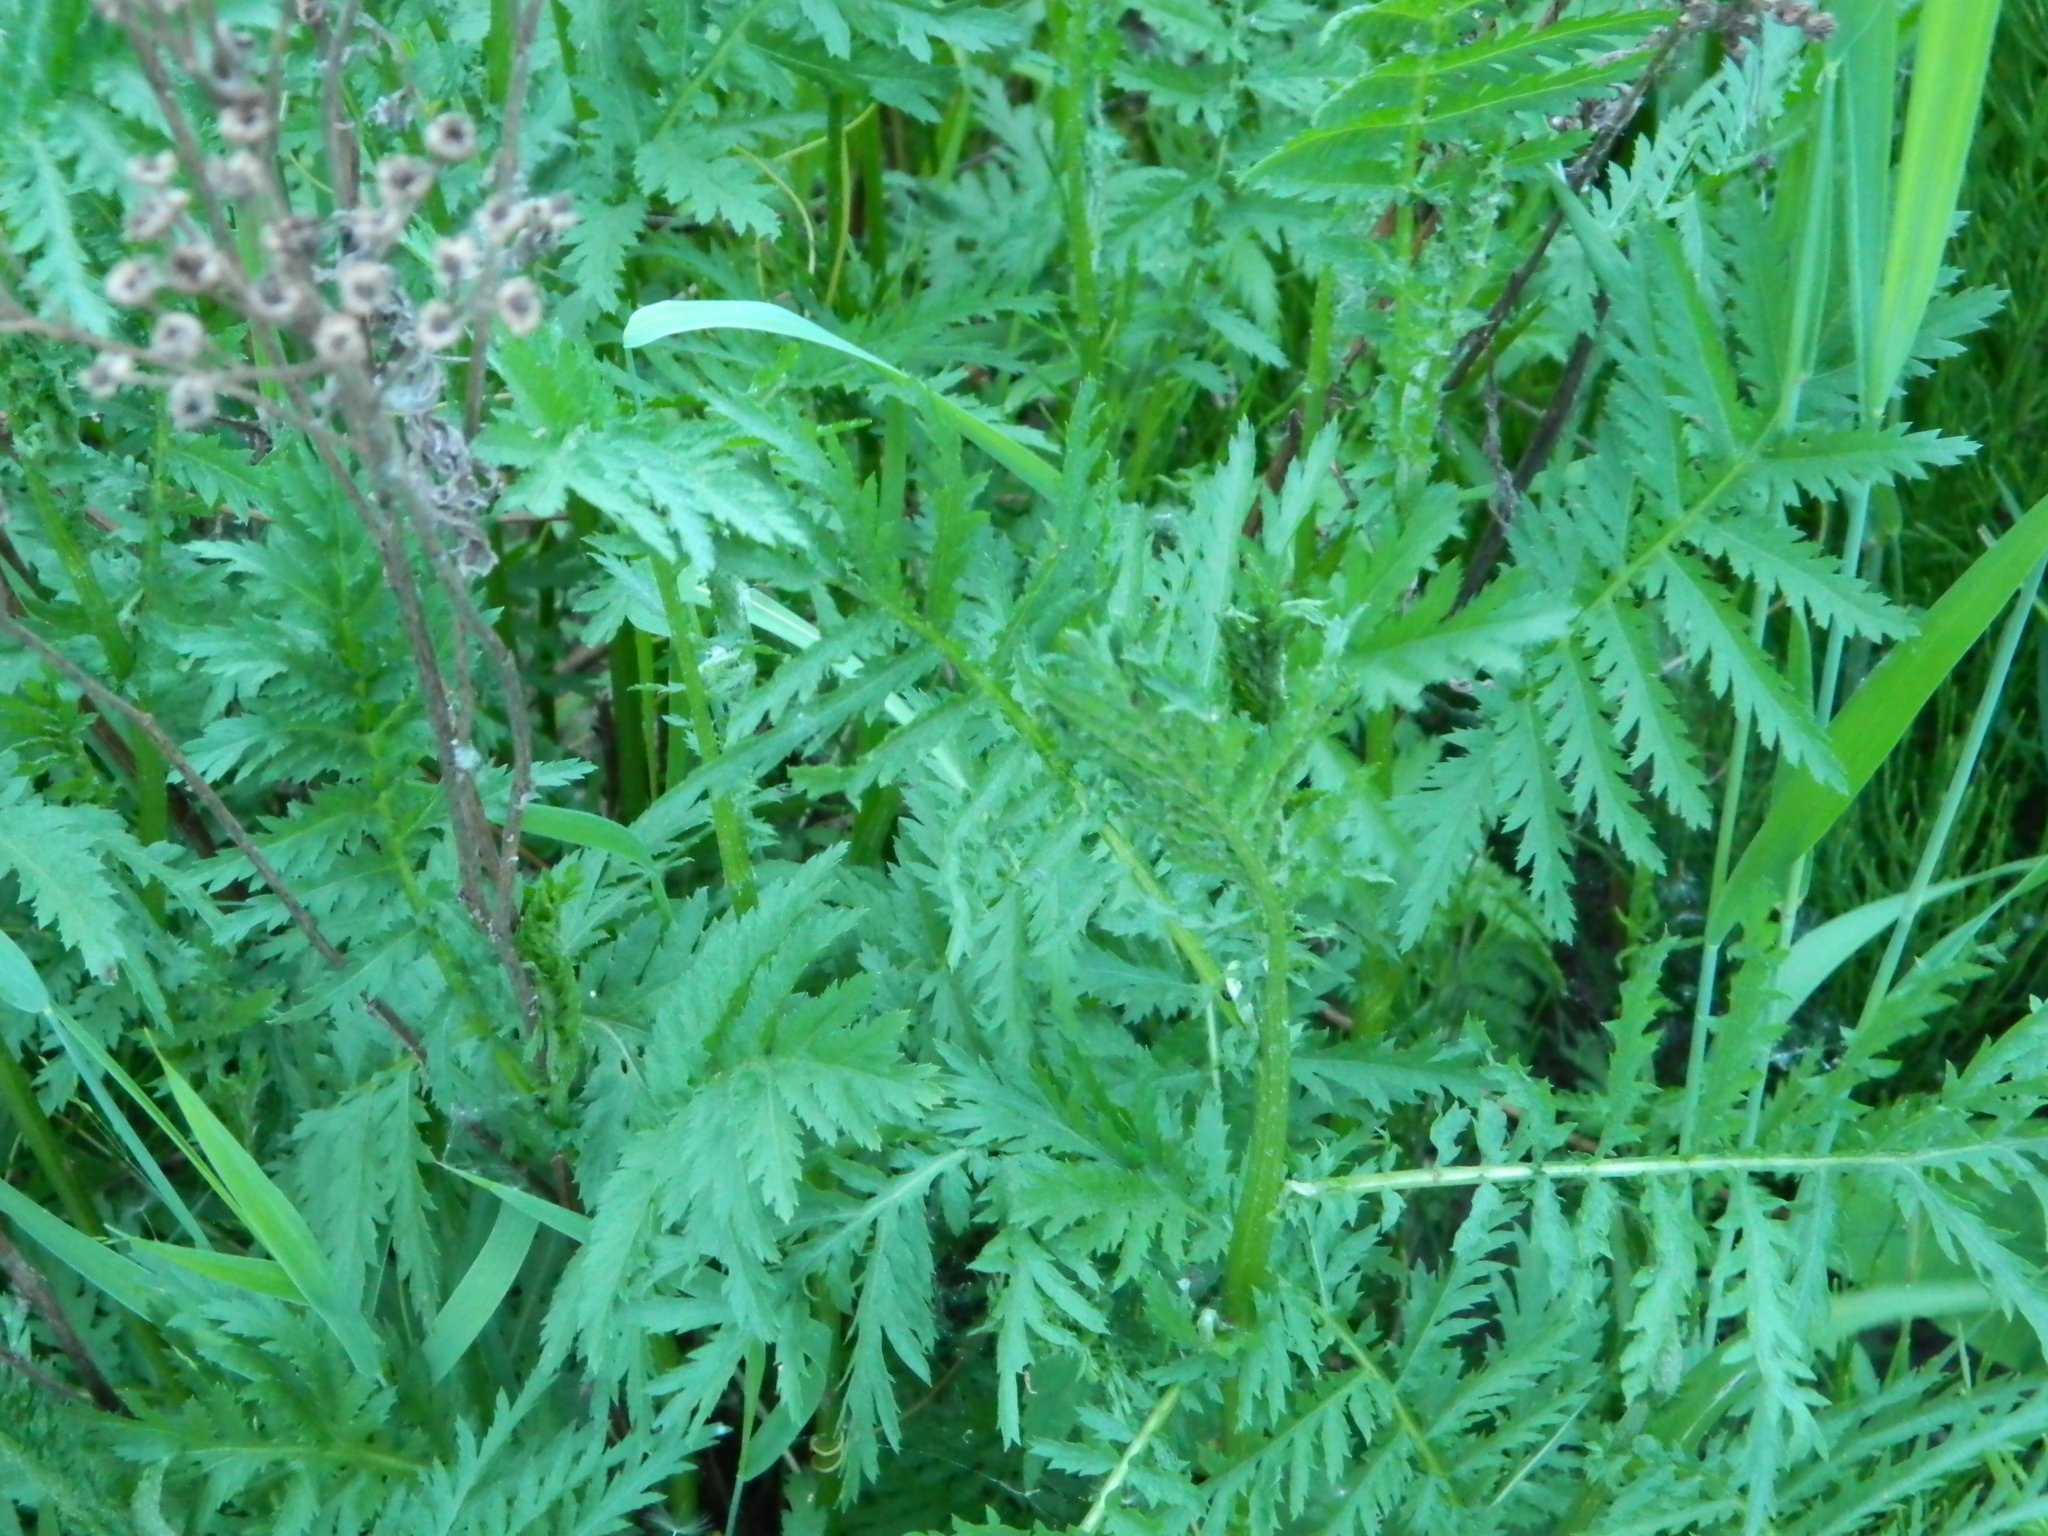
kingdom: Plantae
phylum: Tracheophyta
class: Magnoliopsida
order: Asterales
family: Asteraceae
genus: Tanacetum
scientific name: Tanacetum vulgare
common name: Common tansy
